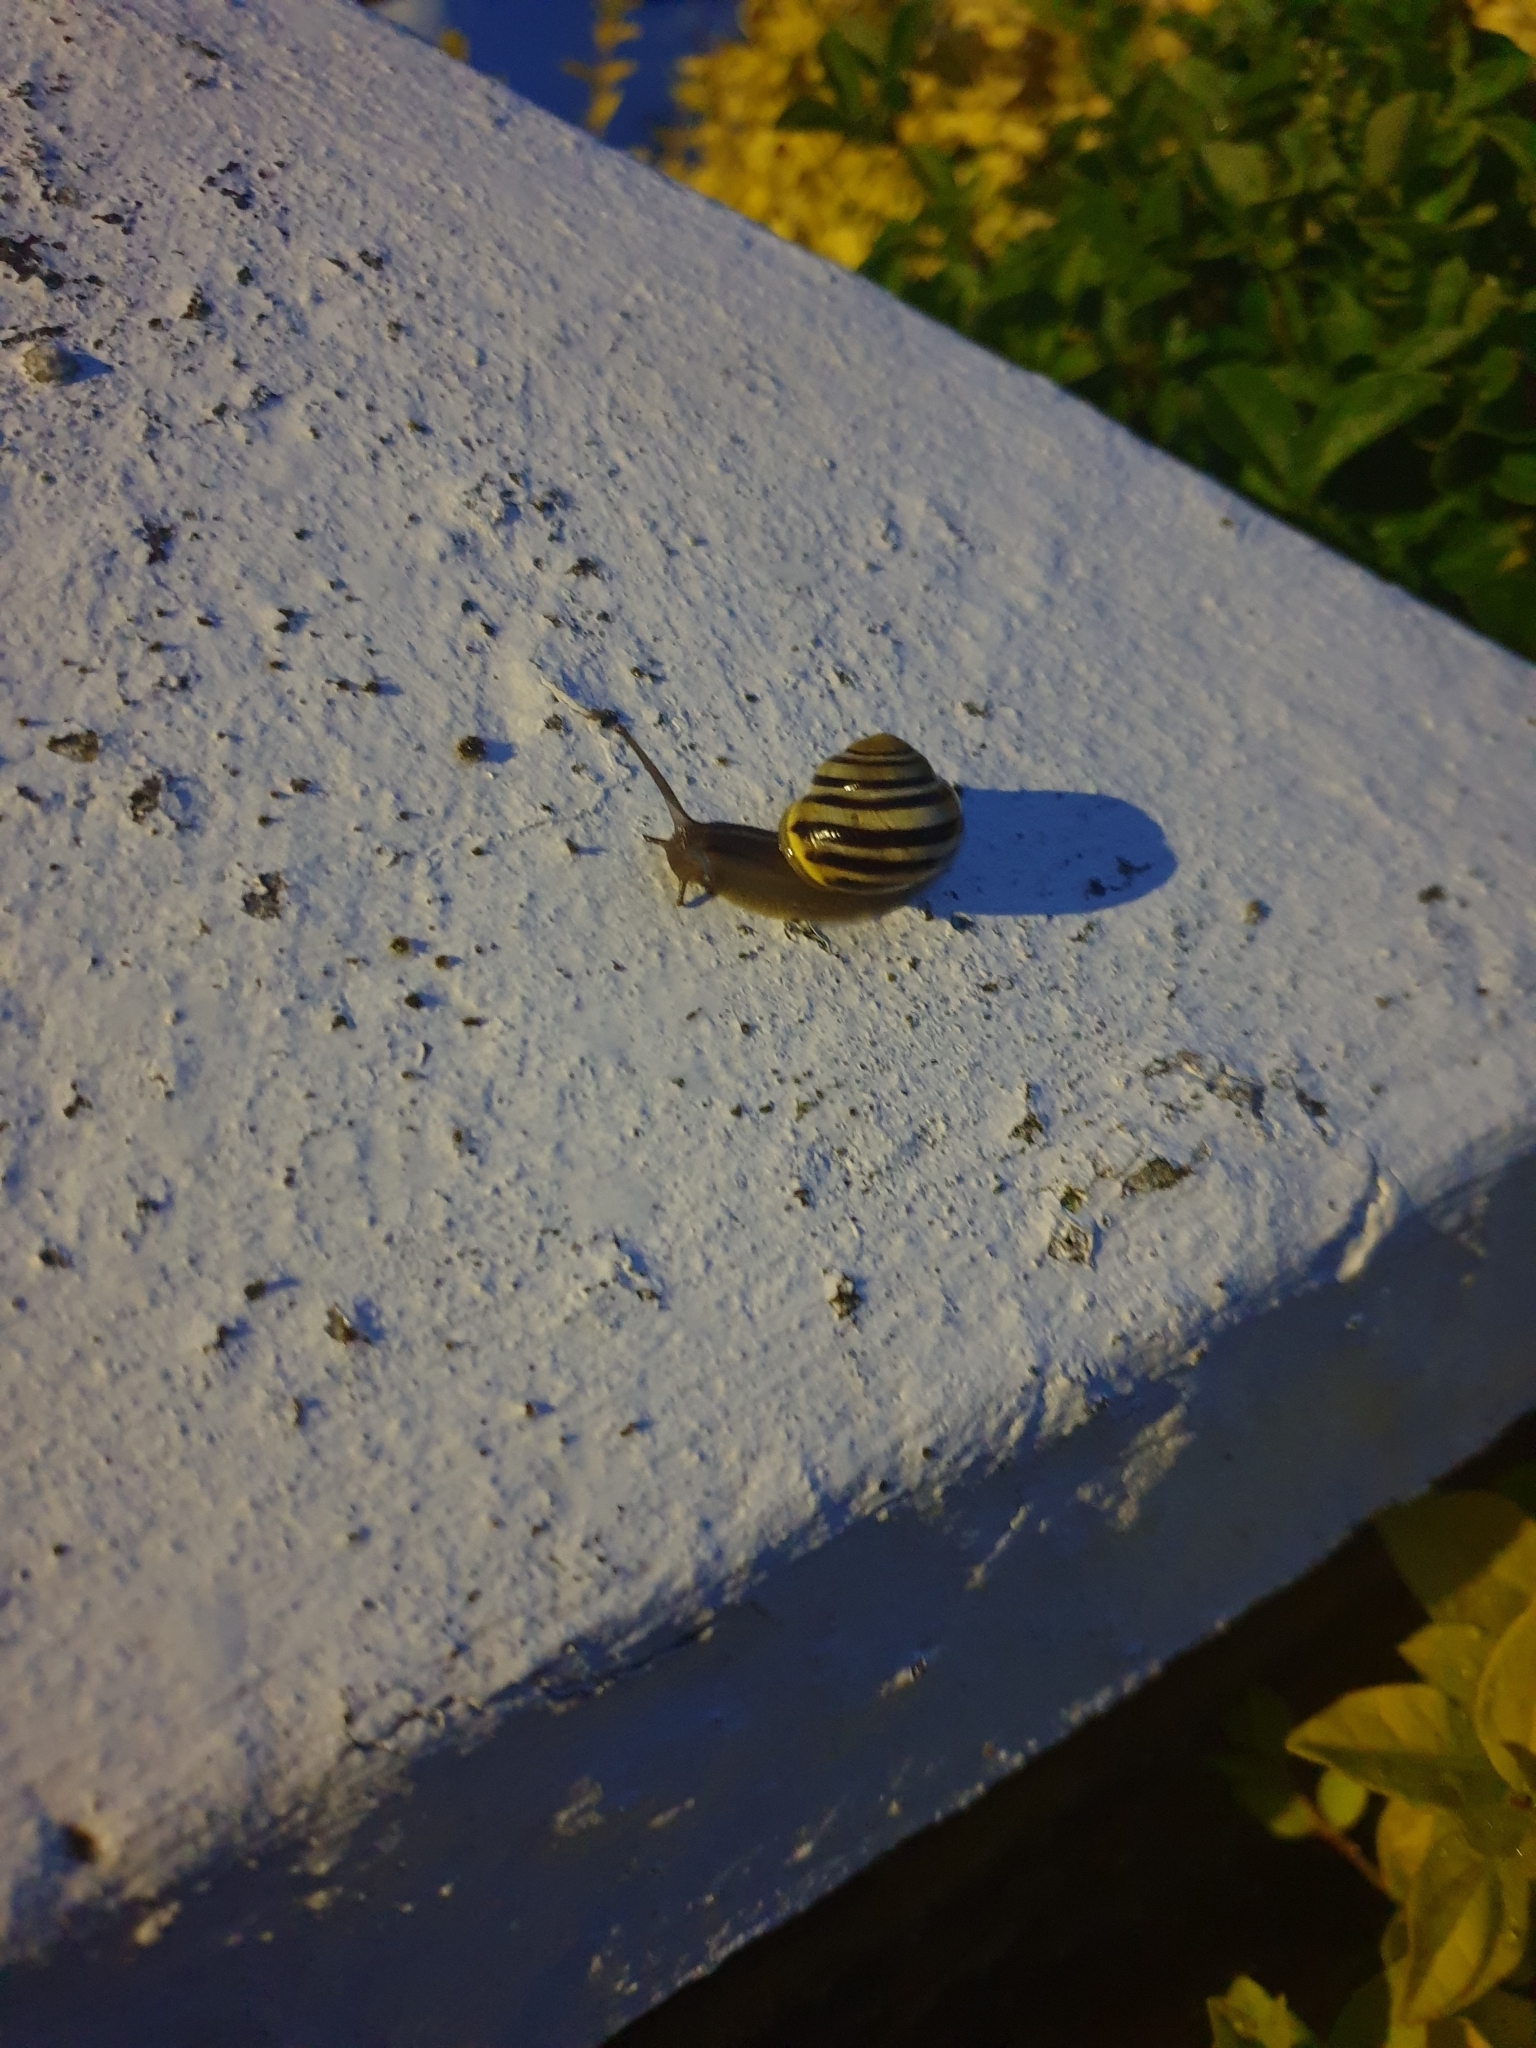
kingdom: Animalia
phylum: Mollusca
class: Gastropoda
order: Stylommatophora
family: Helicidae
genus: Cepaea
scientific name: Cepaea hortensis
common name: White-lip gardensnail
